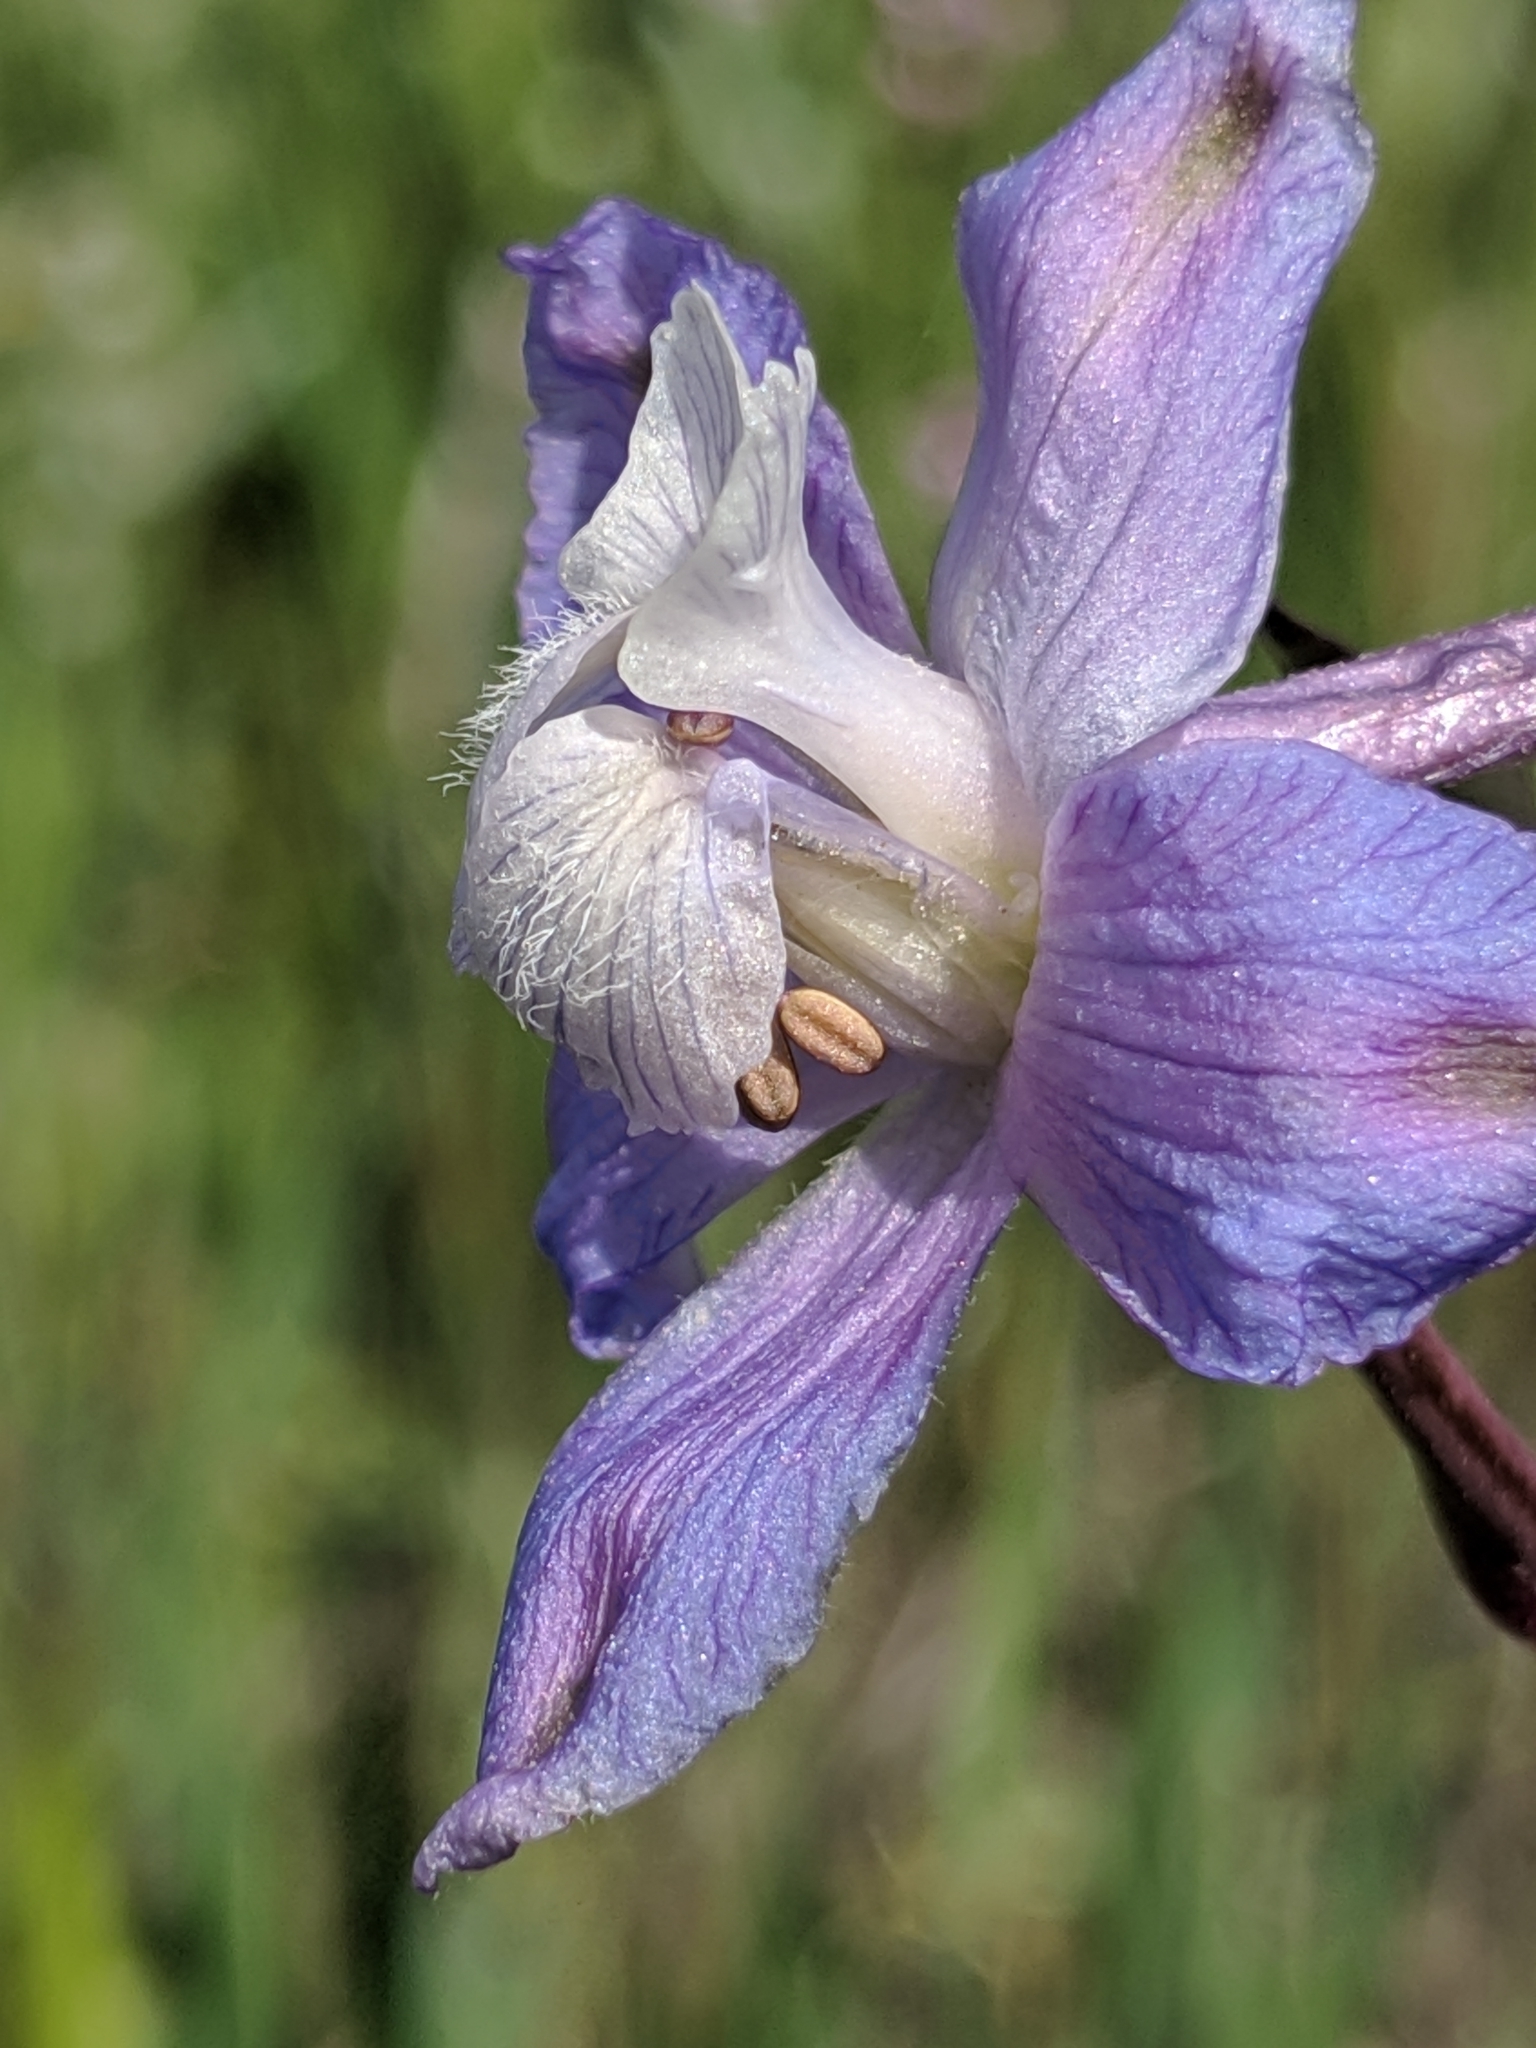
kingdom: Plantae
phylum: Tracheophyta
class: Magnoliopsida
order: Ranunculales
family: Ranunculaceae
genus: Delphinium
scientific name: Delphinium recurvatum
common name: Recurved larkspur
